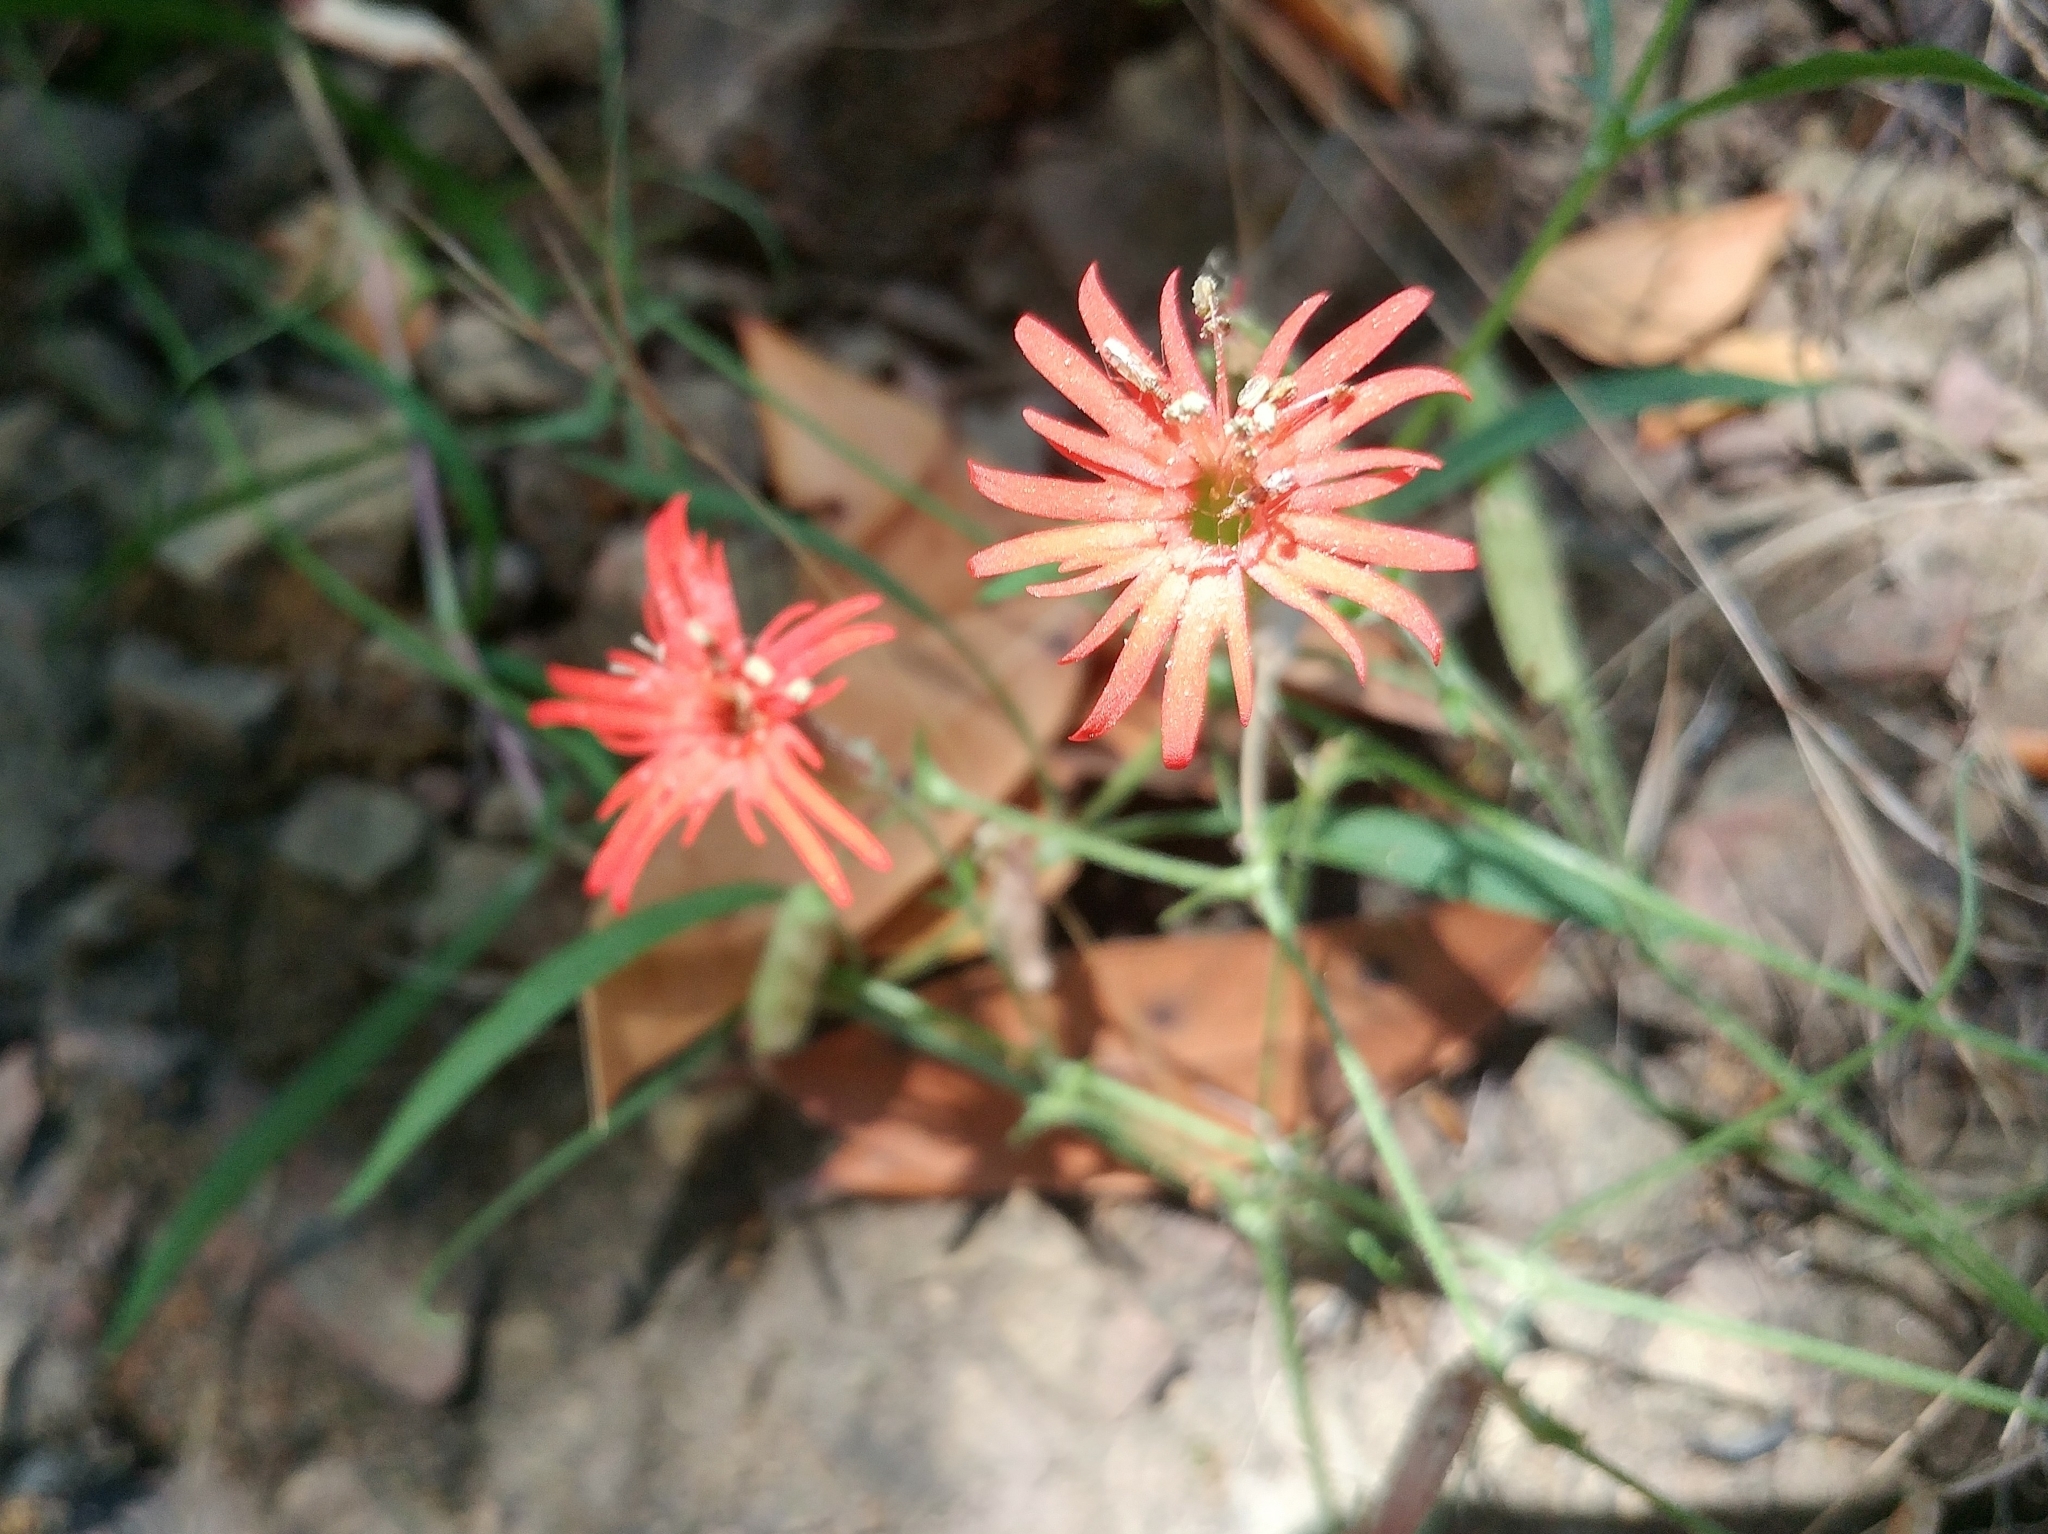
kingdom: Plantae
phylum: Tracheophyta
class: Magnoliopsida
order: Caryophyllales
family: Caryophyllaceae
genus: Silene
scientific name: Silene laciniata
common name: Indian-pink
